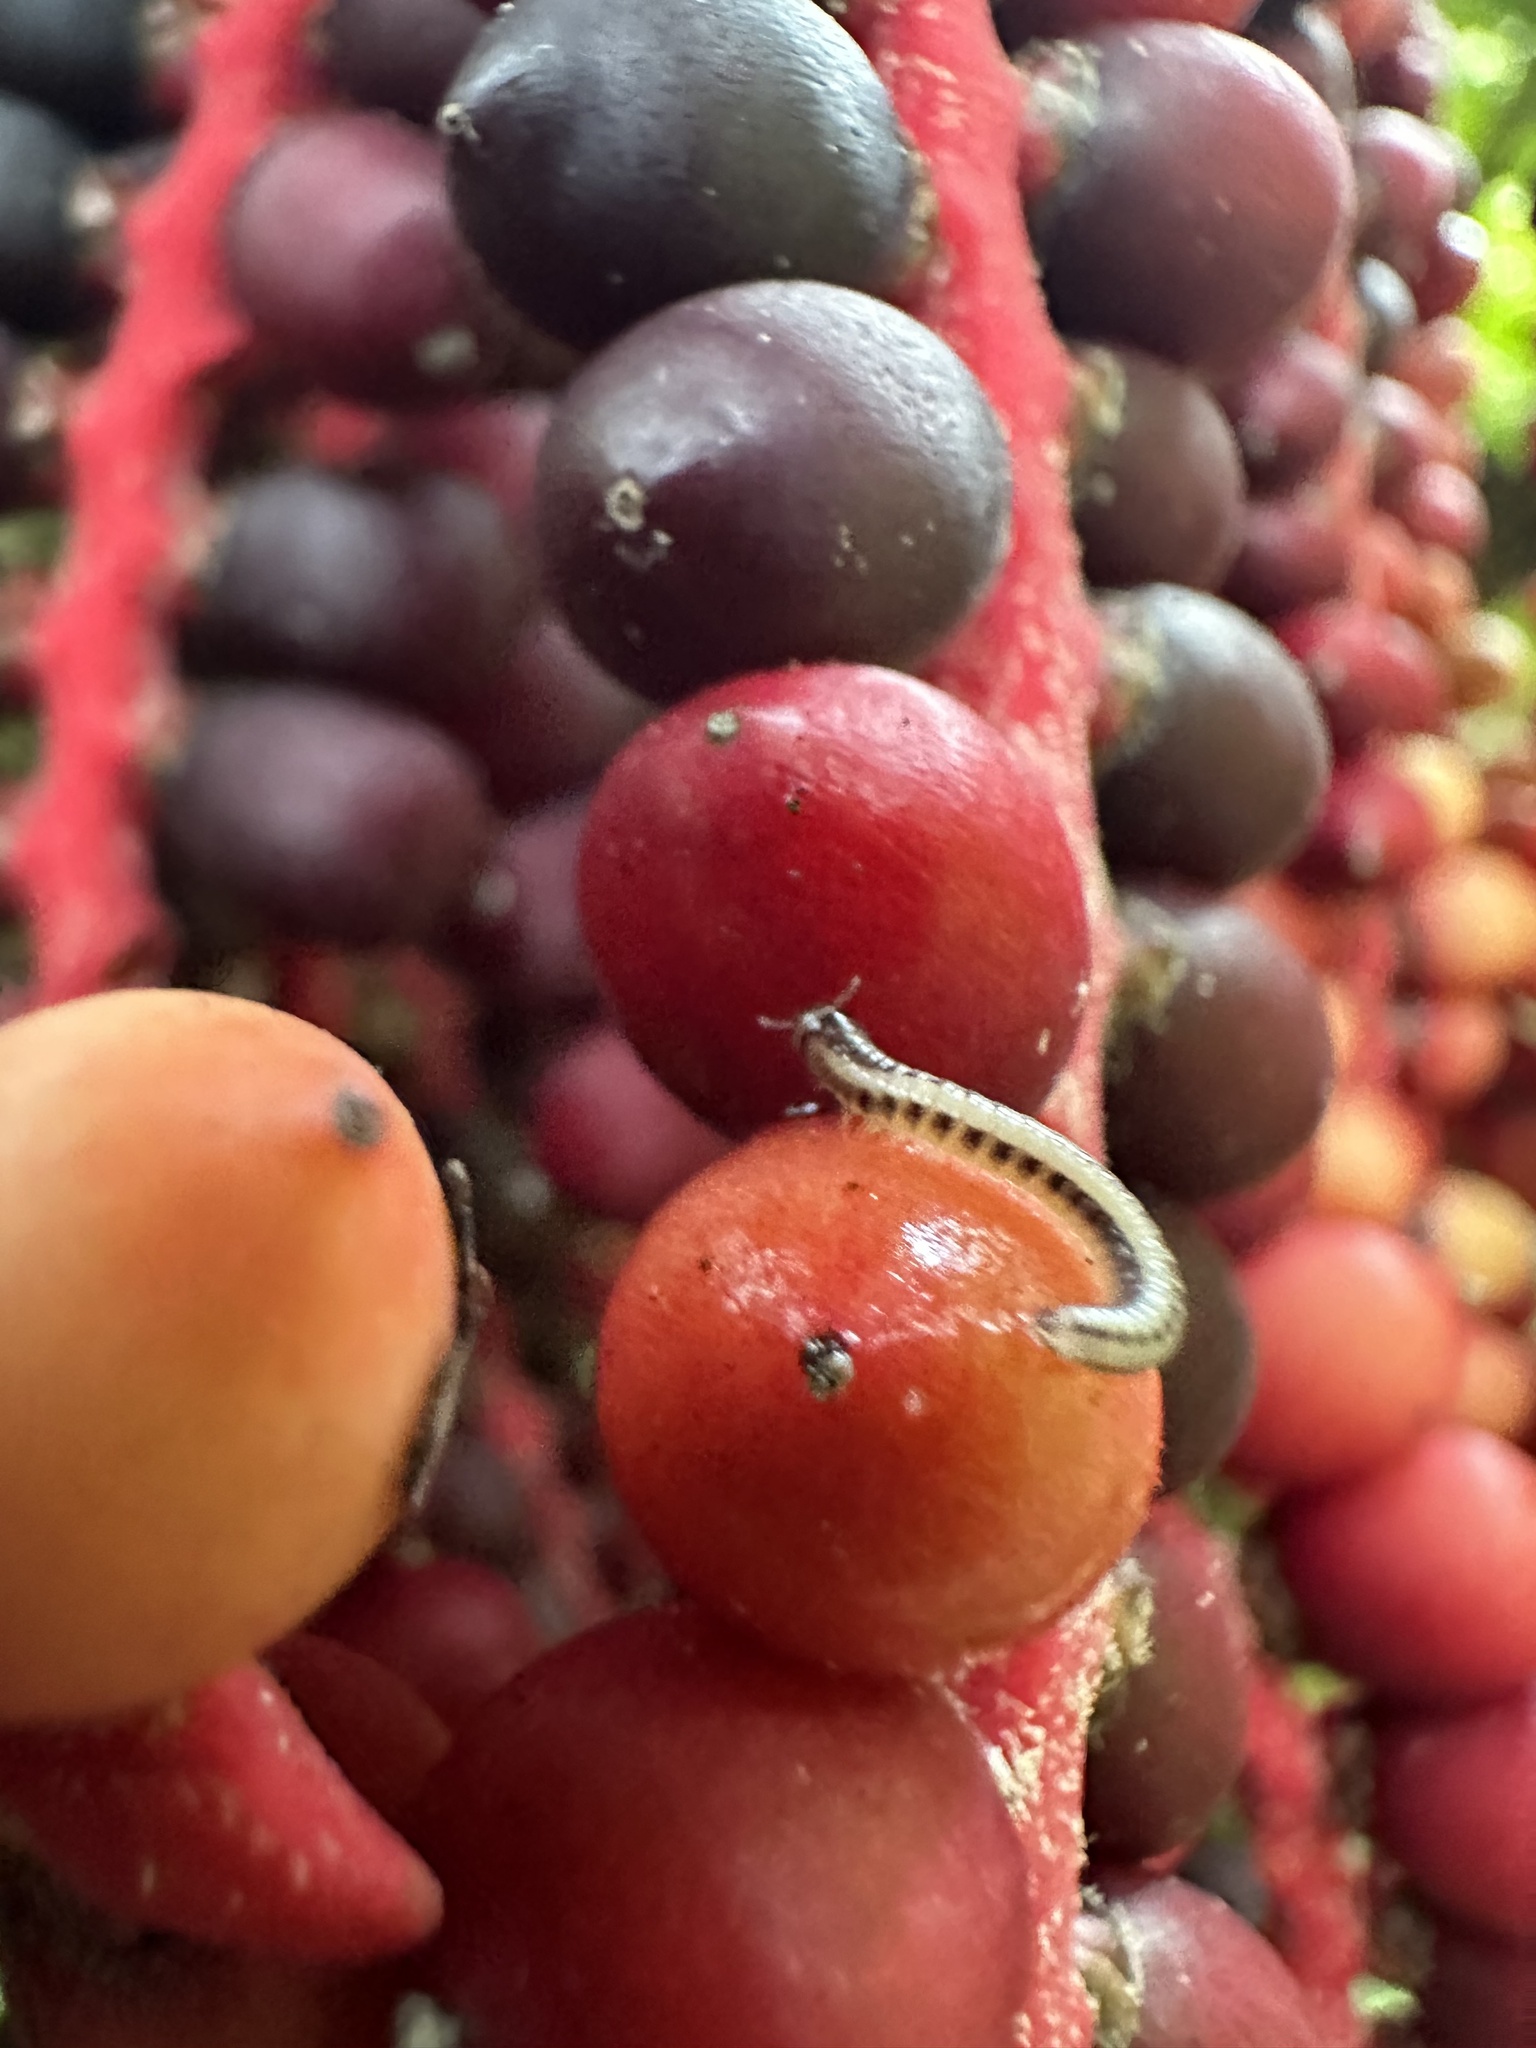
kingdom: Animalia
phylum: Arthropoda
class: Diplopoda
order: Spirobolida
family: Spirobolellidae
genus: Spirobolellus
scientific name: Spirobolellus immigrans
